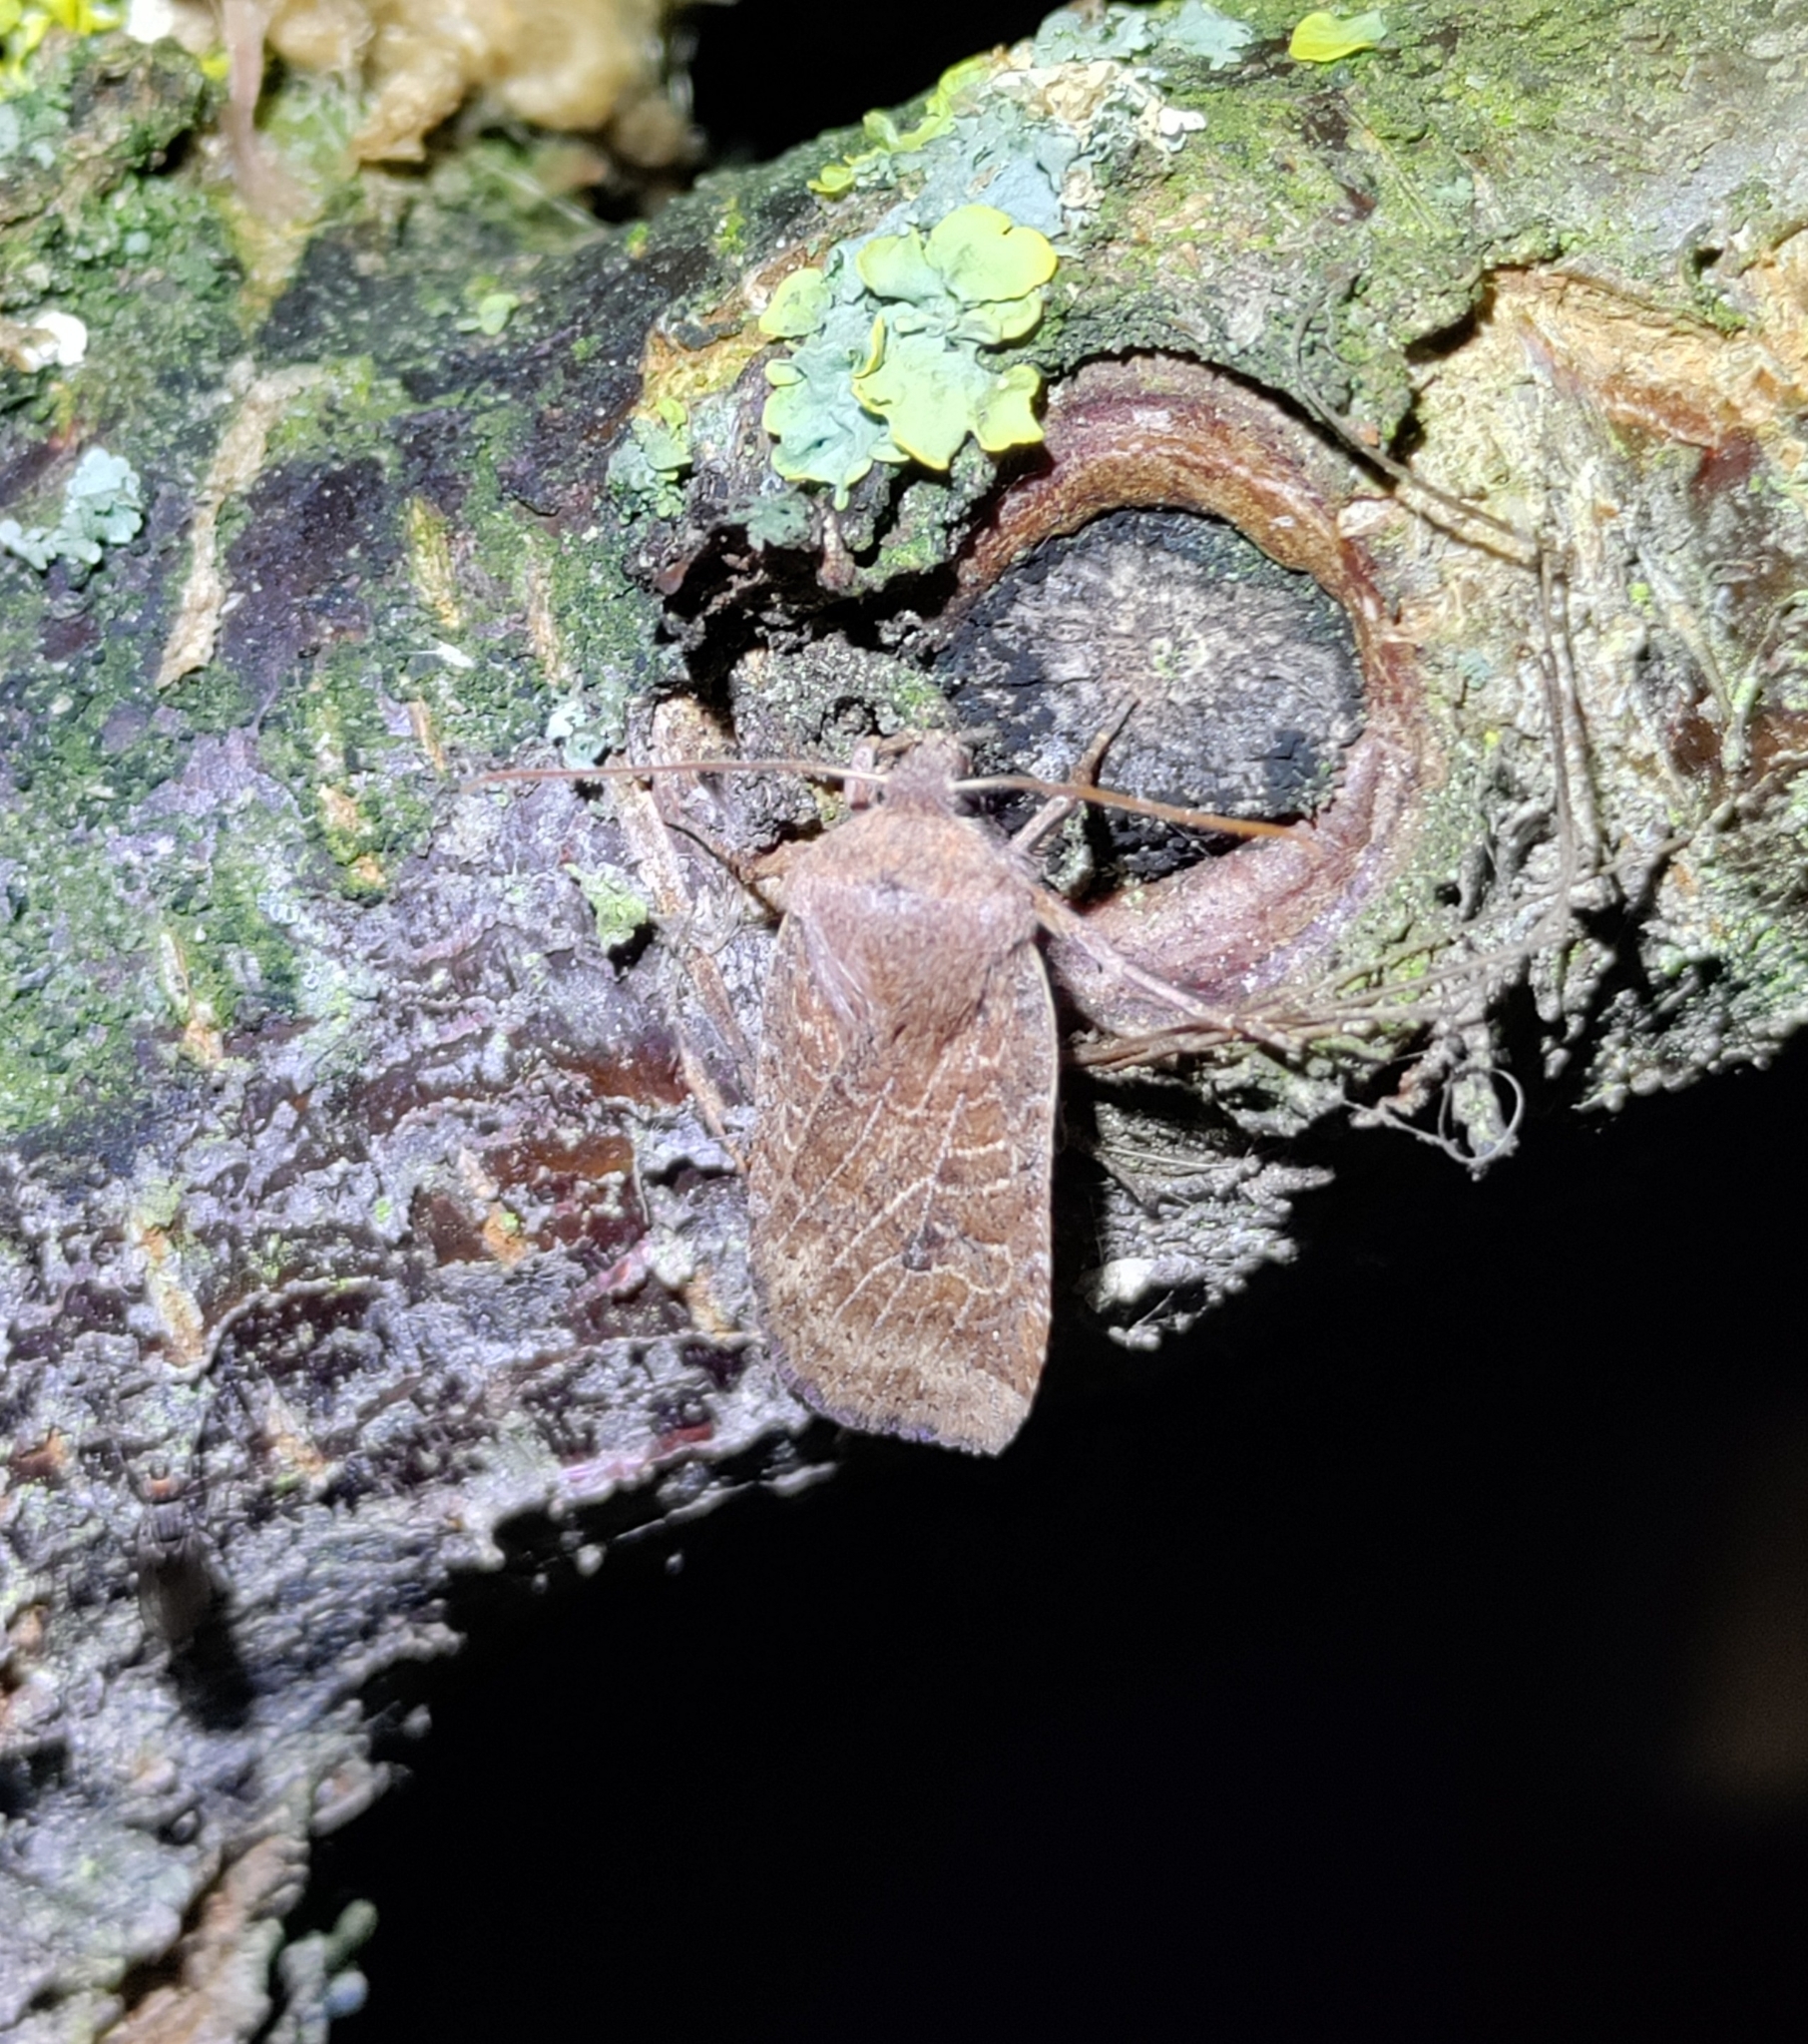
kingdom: Animalia
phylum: Arthropoda
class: Insecta
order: Lepidoptera
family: Noctuidae
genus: Conistra
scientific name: Conistra vaccinii
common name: Chestnut
